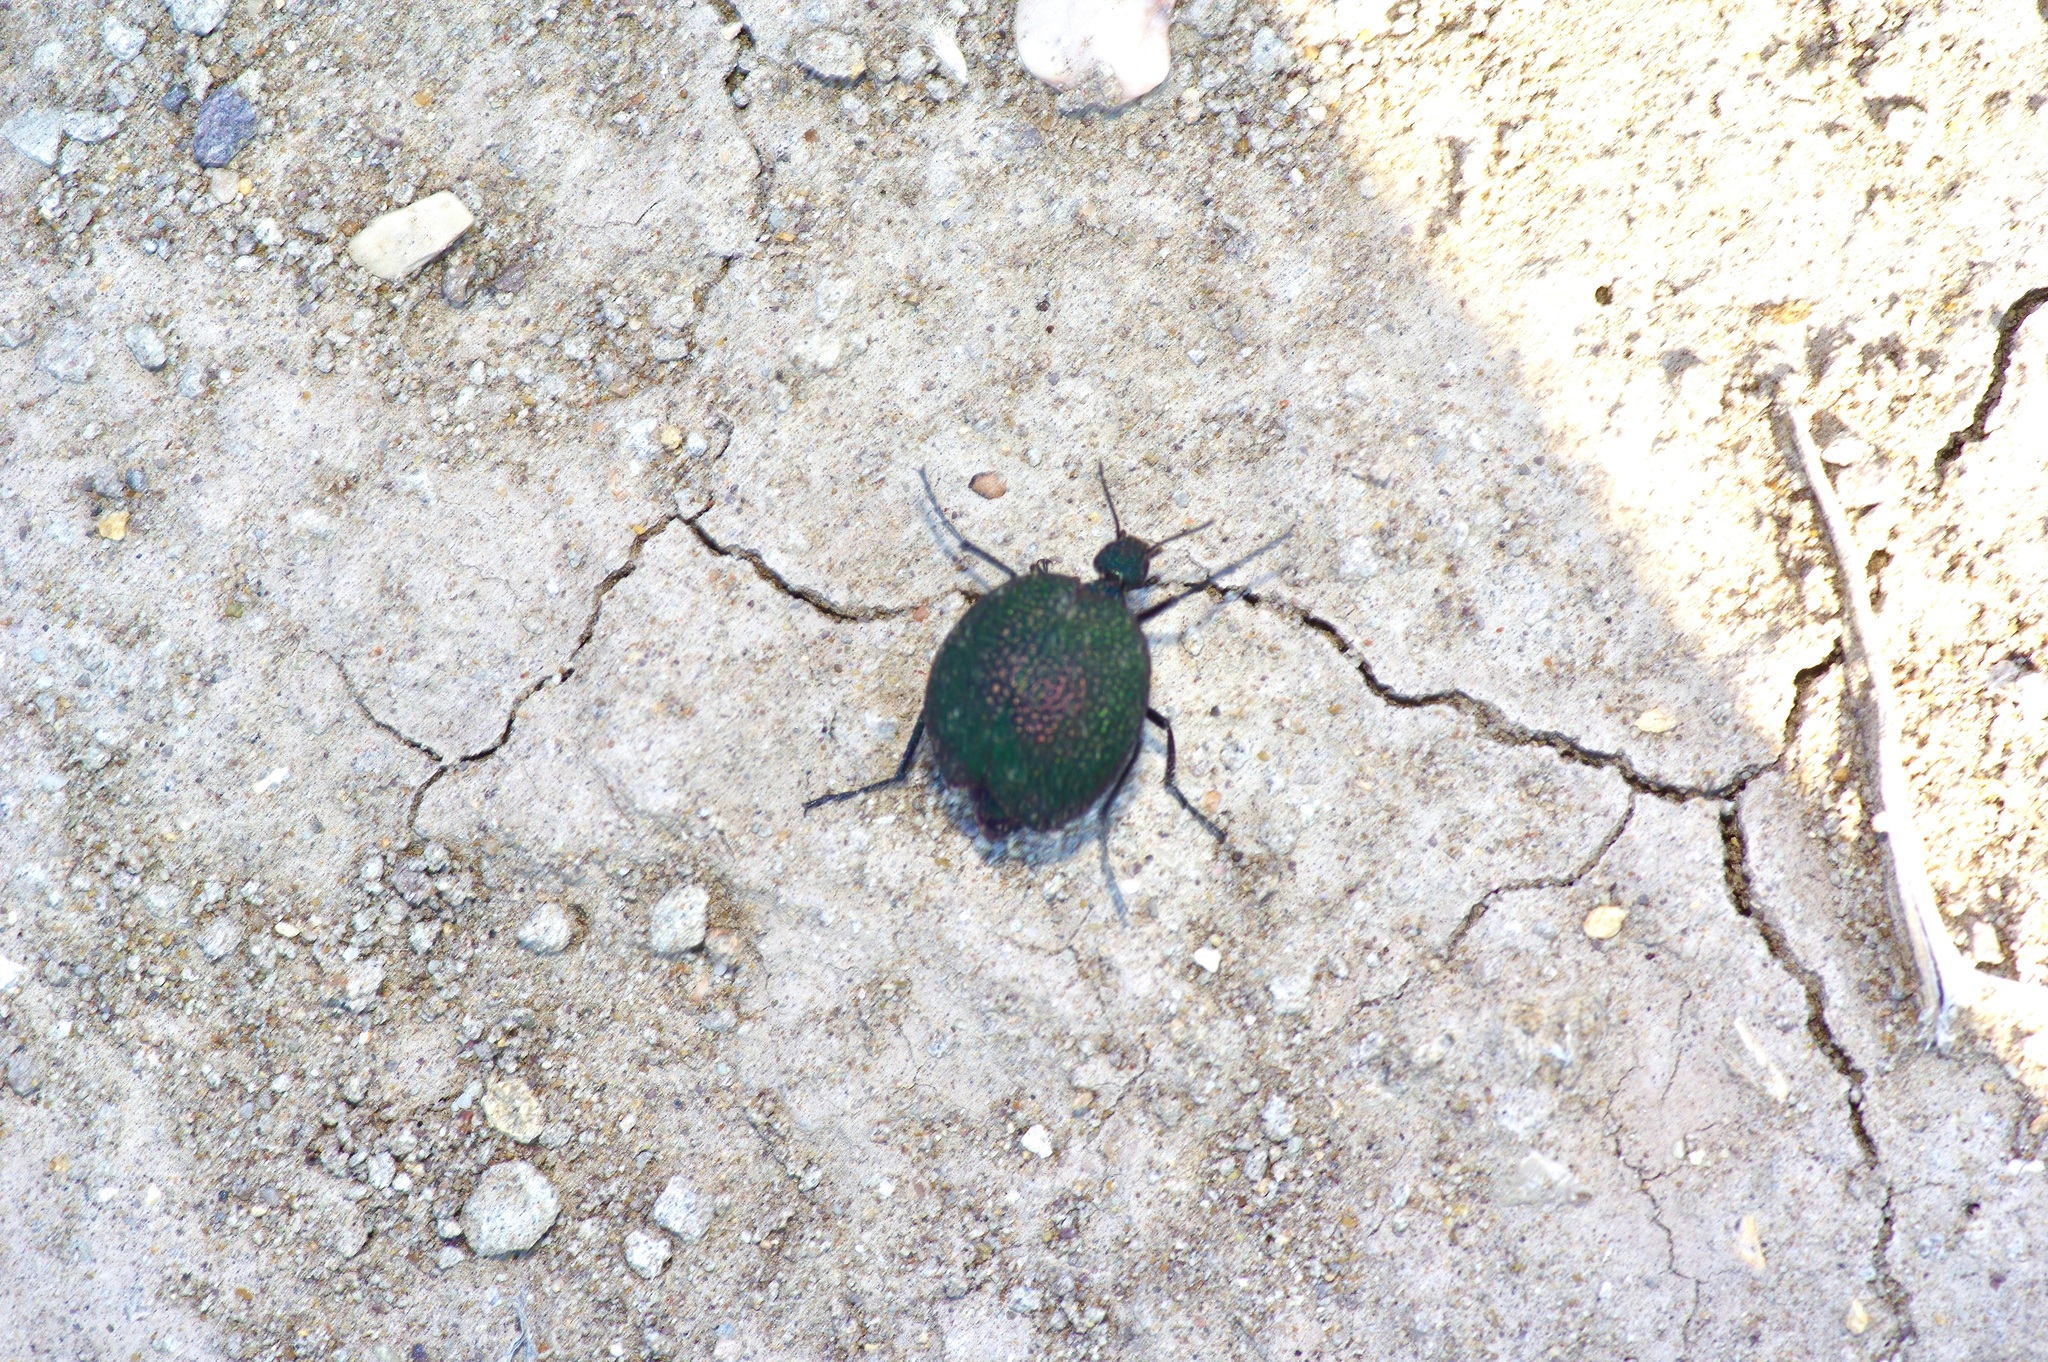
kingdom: Animalia
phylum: Arthropoda
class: Insecta
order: Coleoptera
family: Meloidae
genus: Cysteodemus
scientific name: Cysteodemus wislizeni
